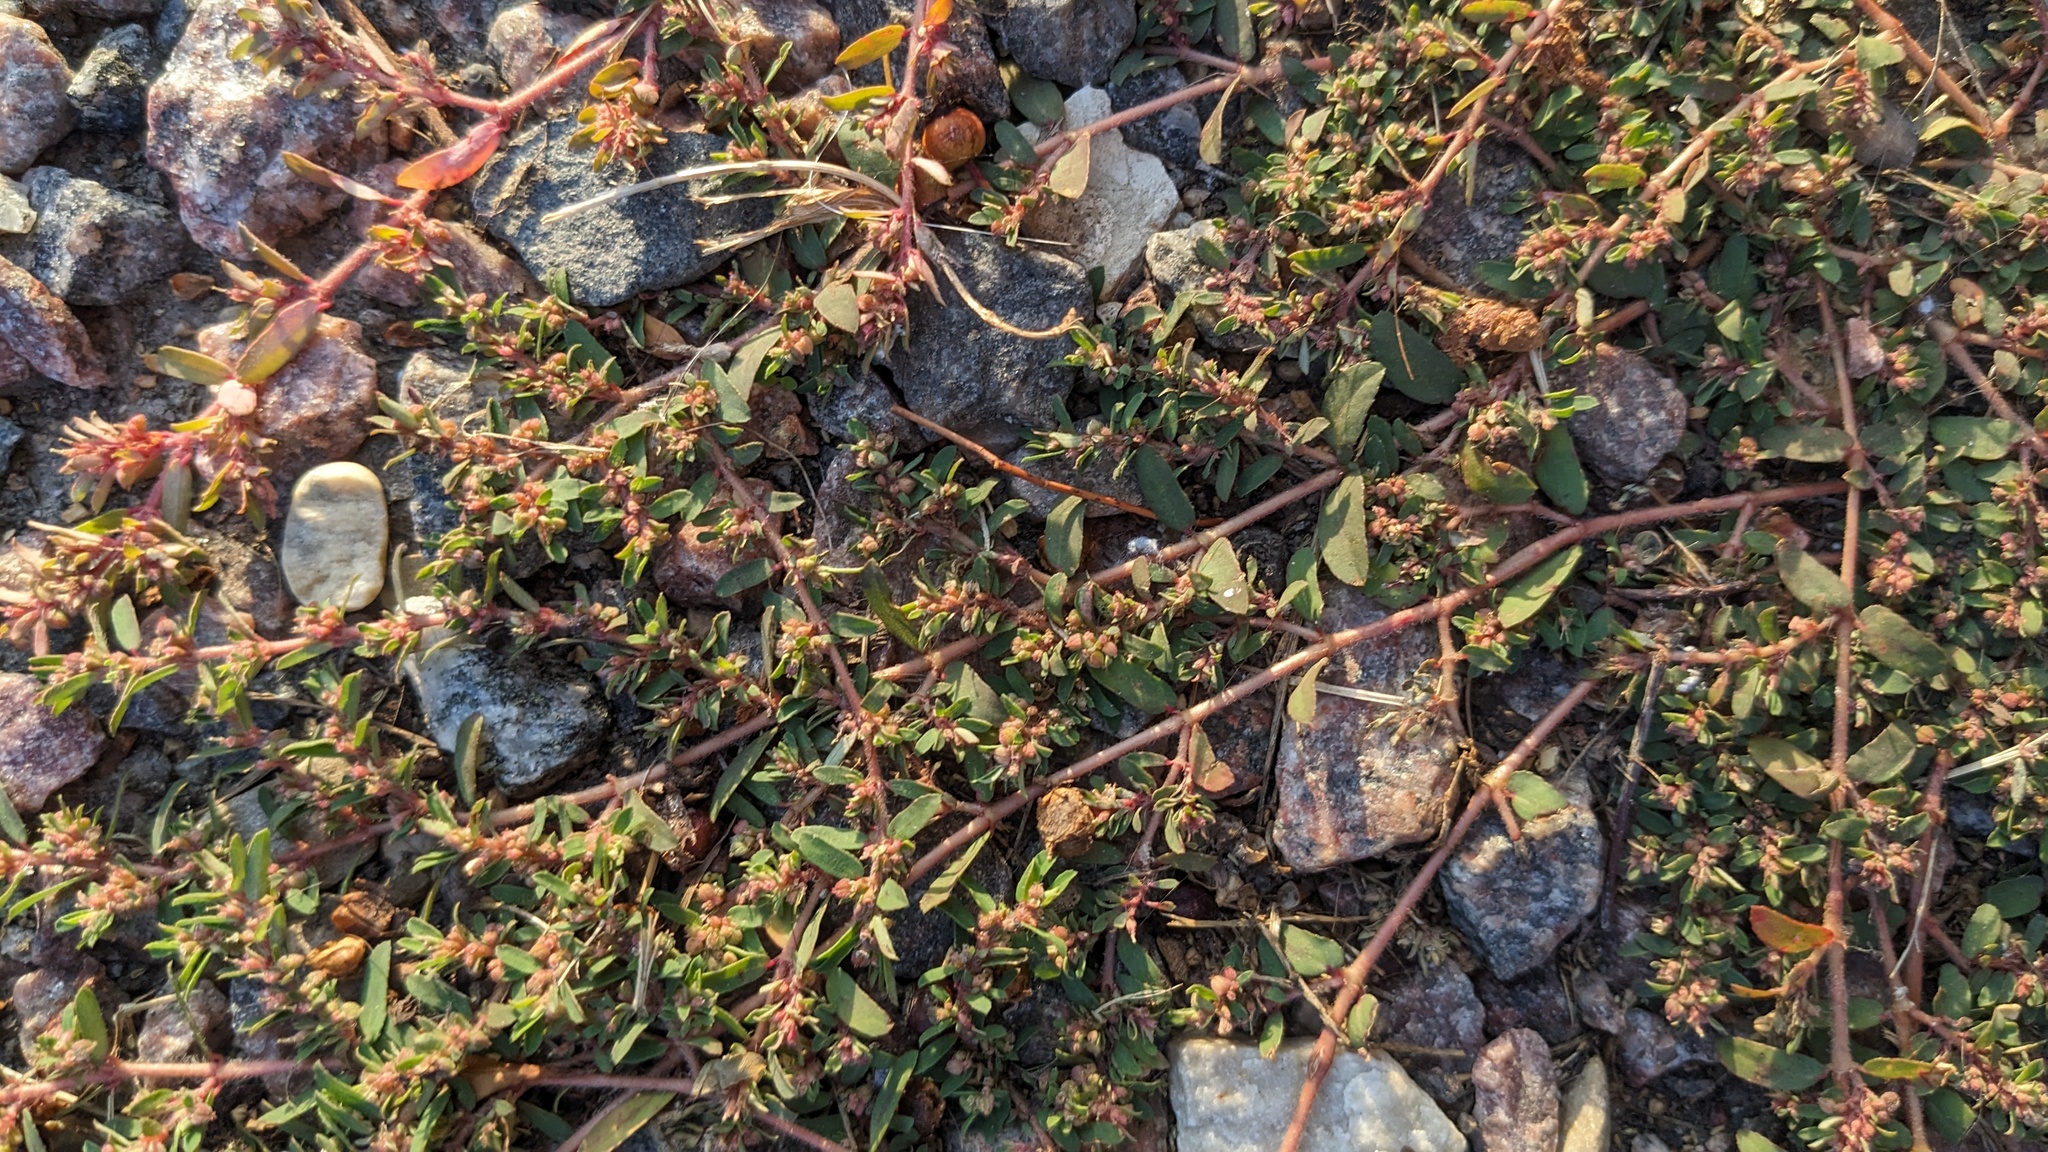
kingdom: Plantae
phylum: Tracheophyta
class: Magnoliopsida
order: Malpighiales
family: Euphorbiaceae
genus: Euphorbia
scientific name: Euphorbia maculata
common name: Spotted spurge
